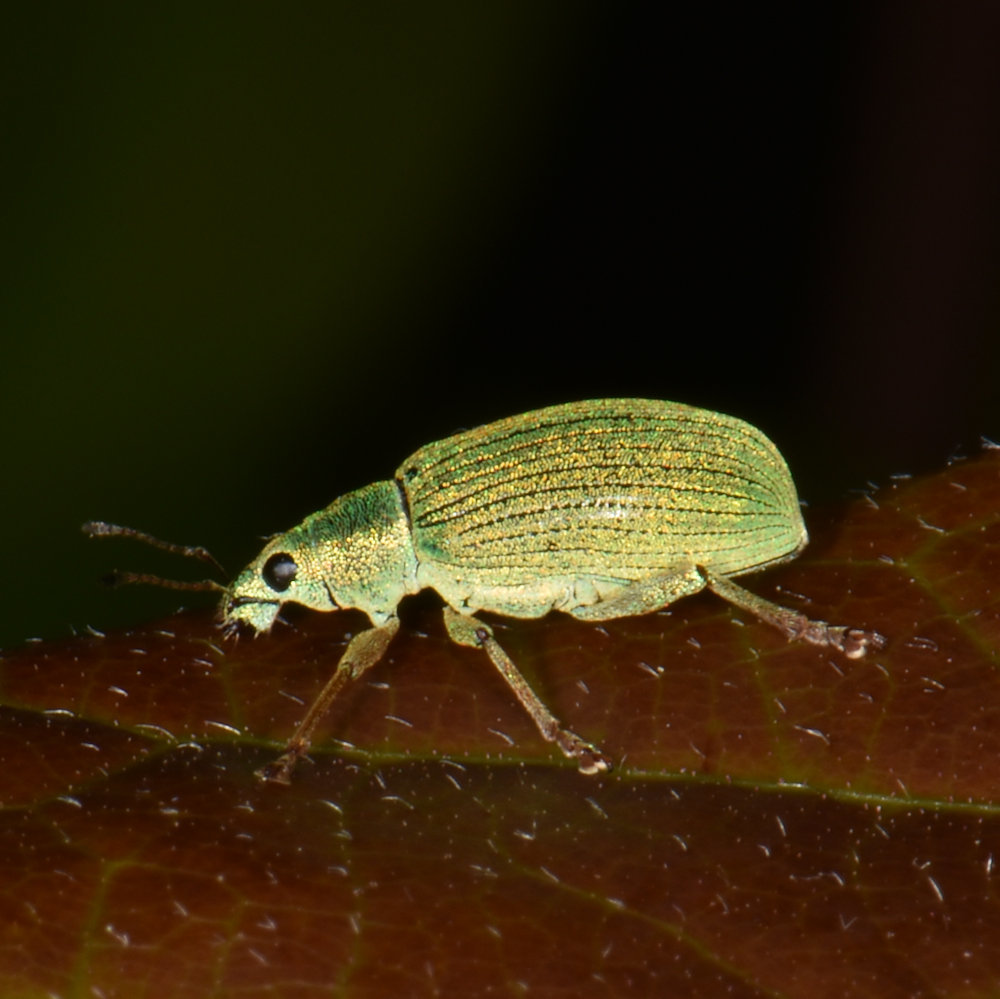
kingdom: Animalia
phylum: Arthropoda
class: Insecta
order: Coleoptera
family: Curculionidae
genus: Polydrusus
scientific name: Polydrusus formosus
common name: Weevil
